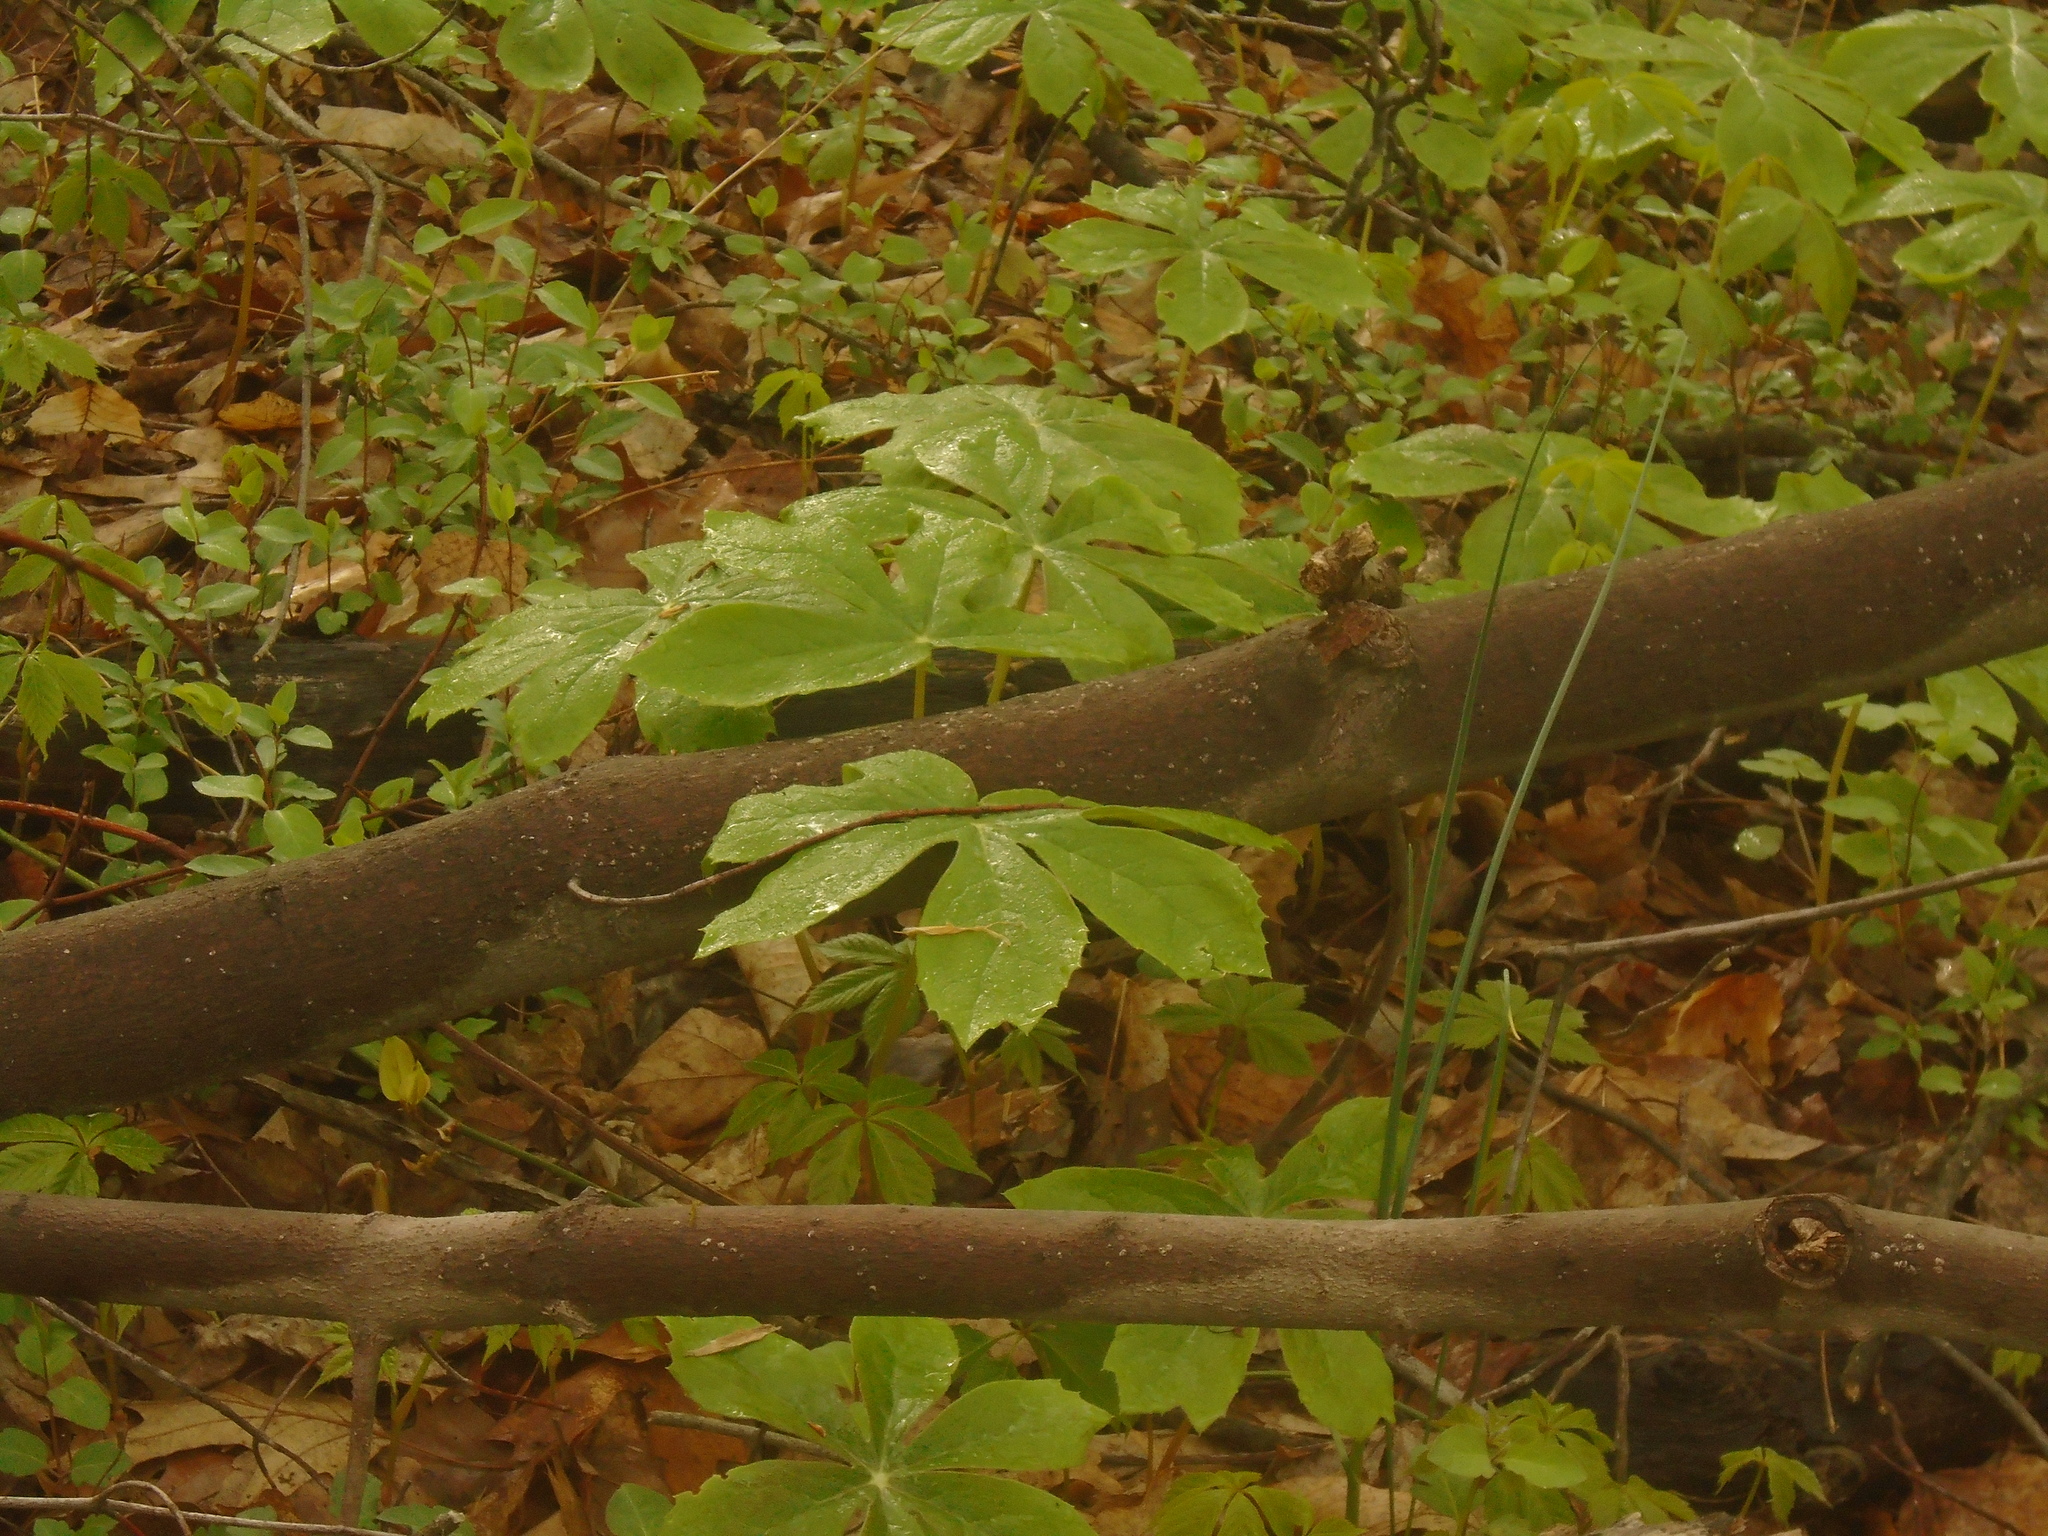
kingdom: Plantae
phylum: Tracheophyta
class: Magnoliopsida
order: Ranunculales
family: Berberidaceae
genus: Podophyllum
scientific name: Podophyllum peltatum
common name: Wild mandrake
